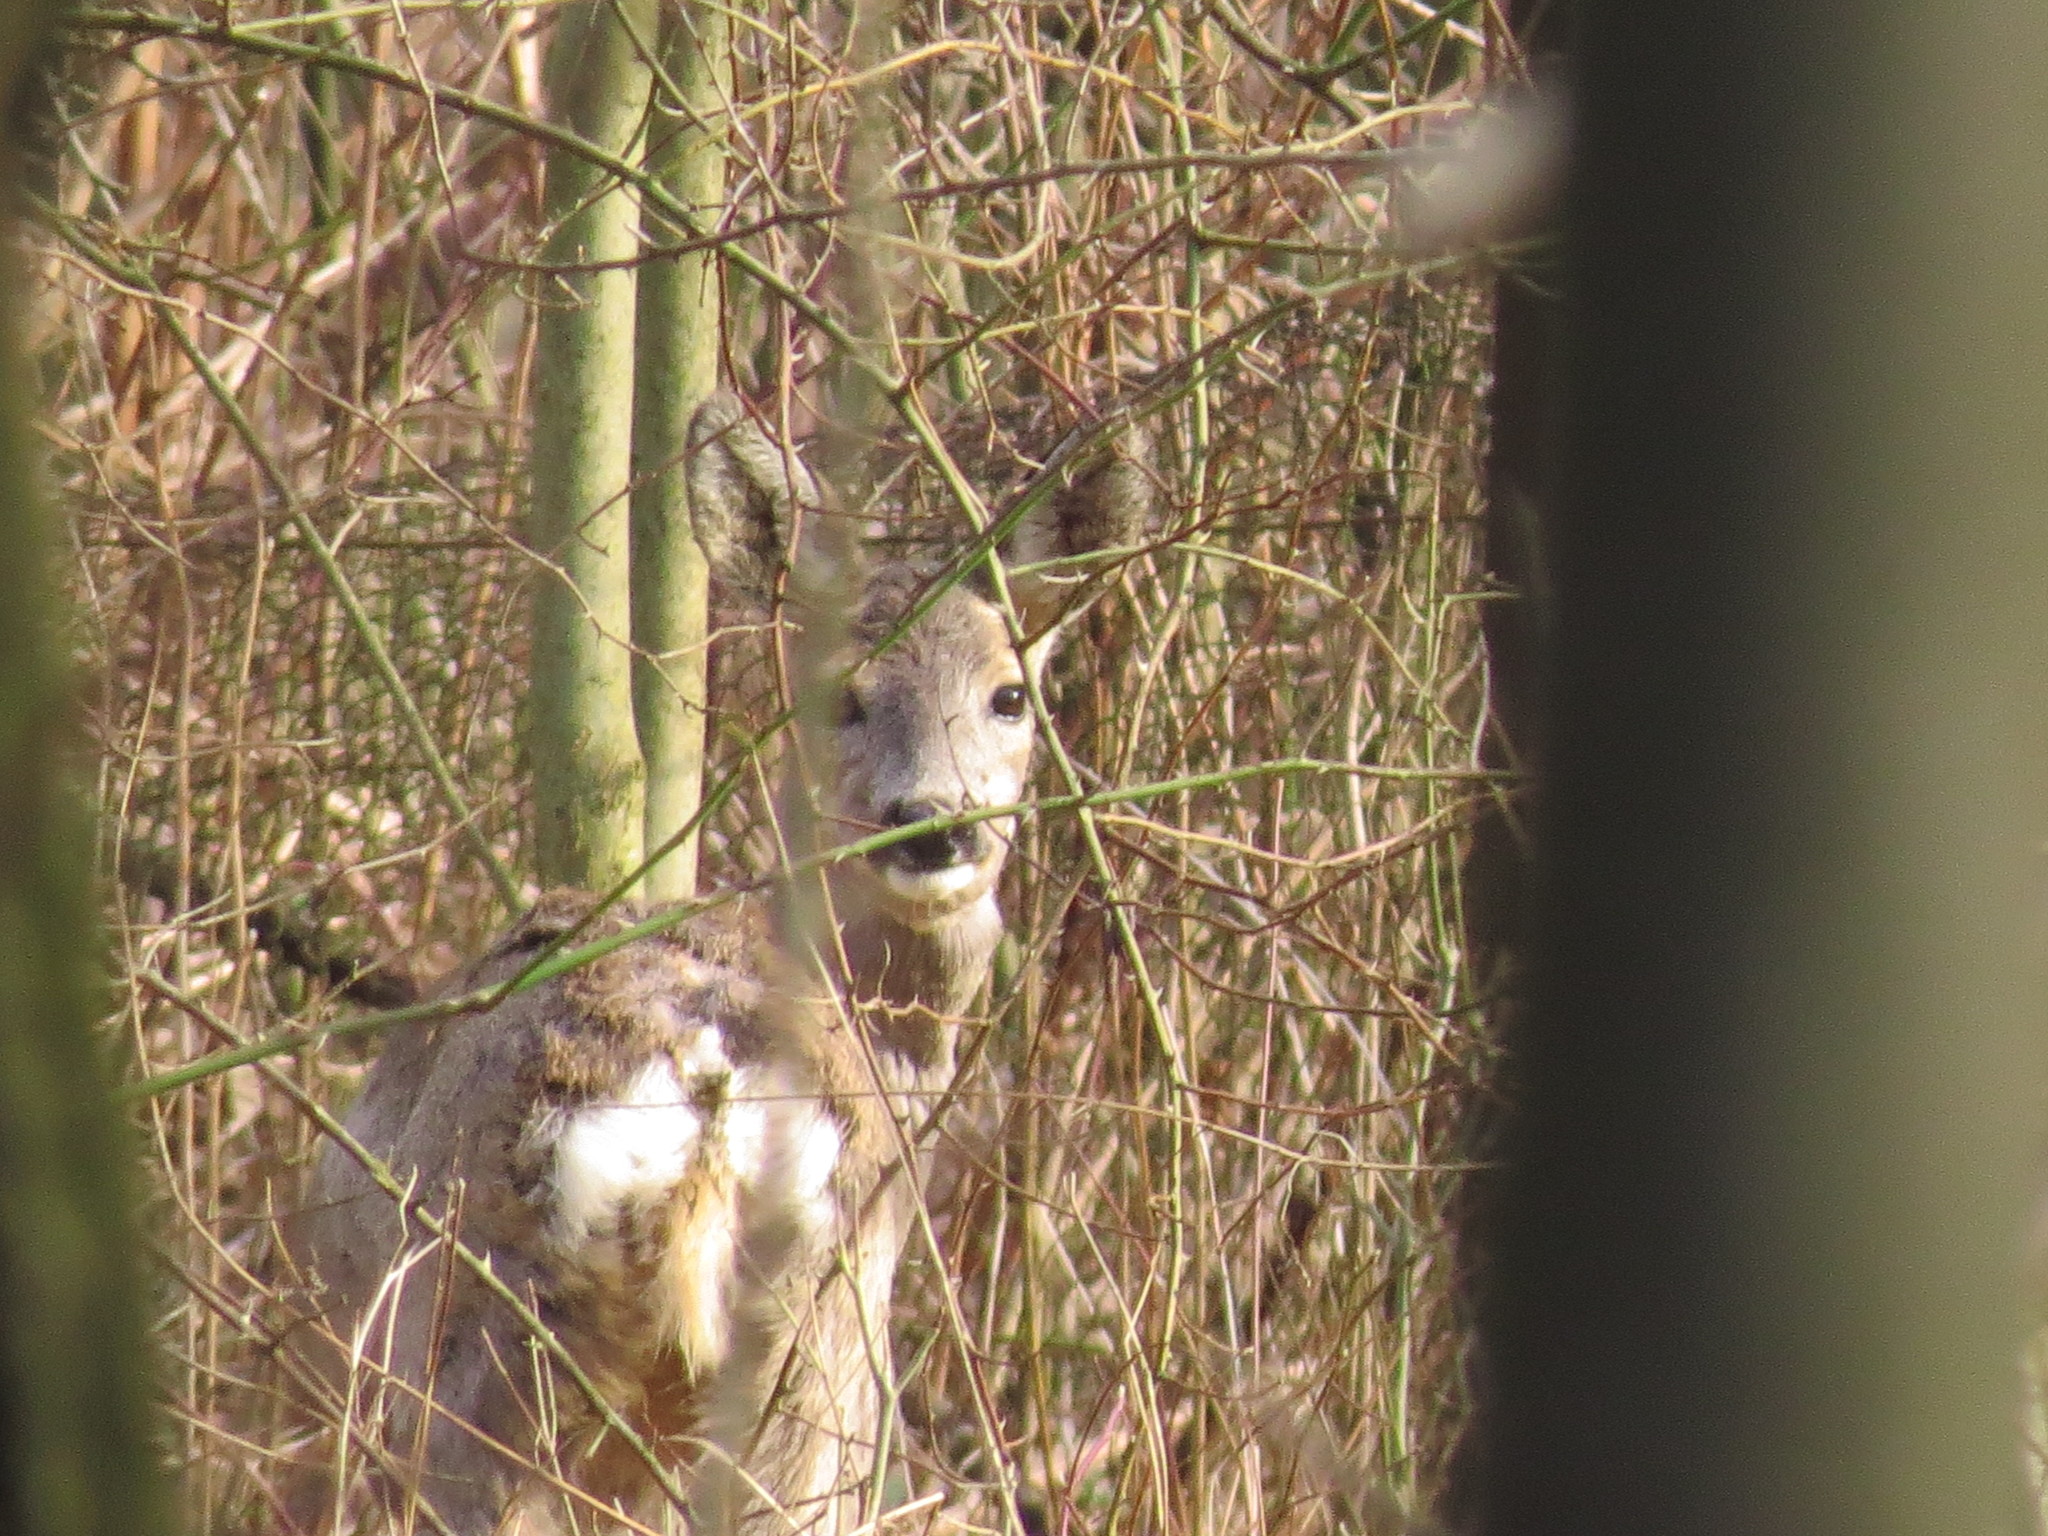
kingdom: Animalia
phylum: Chordata
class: Mammalia
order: Artiodactyla
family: Cervidae
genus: Capreolus
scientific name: Capreolus capreolus
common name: Western roe deer
